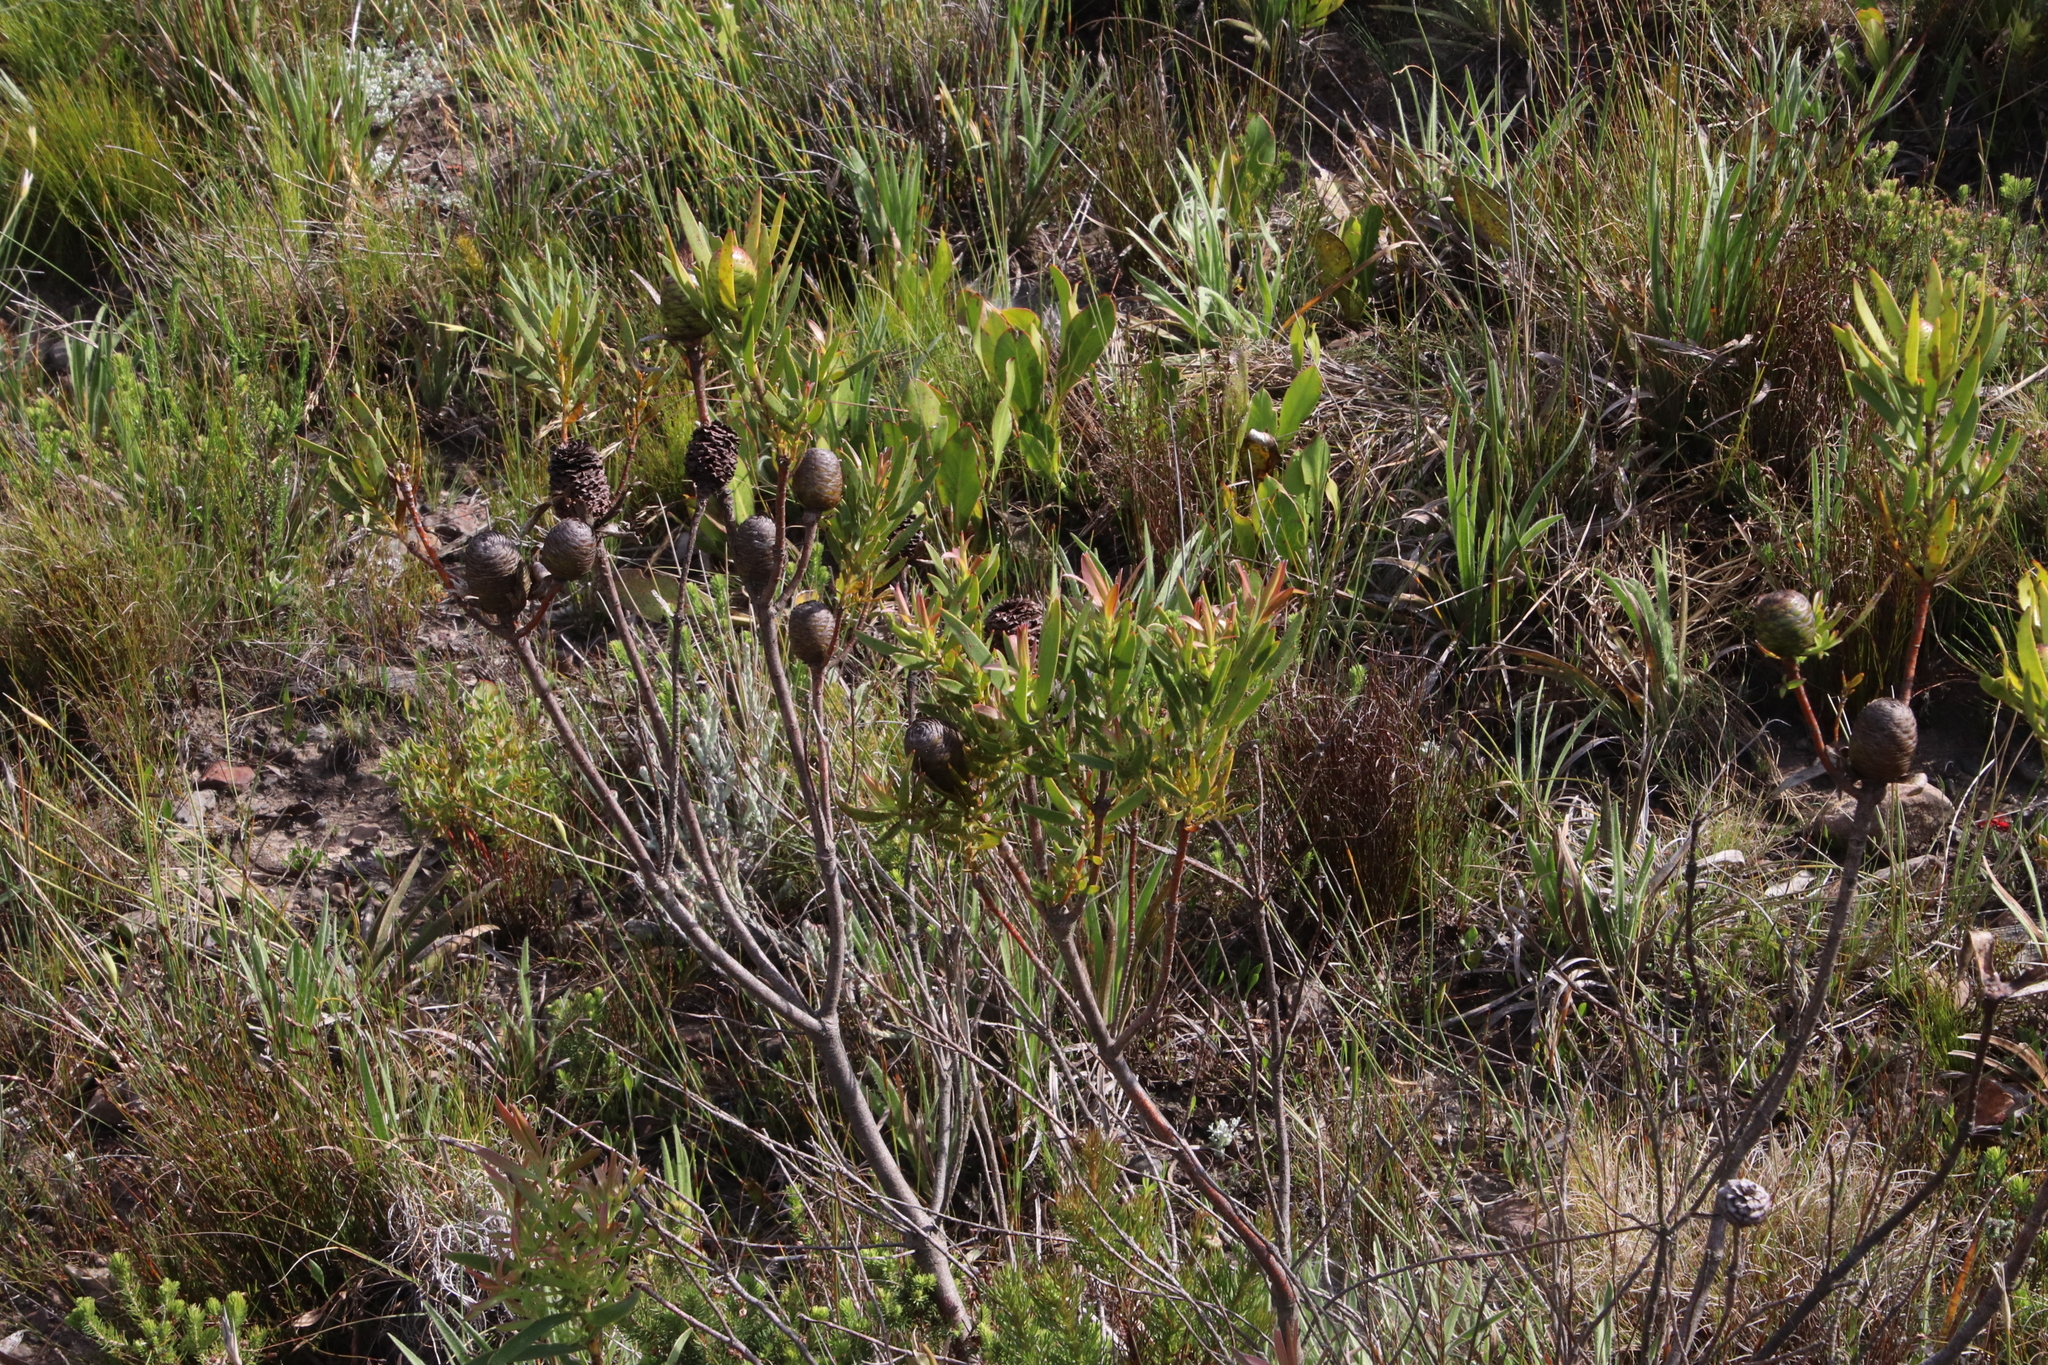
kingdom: Plantae
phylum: Tracheophyta
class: Magnoliopsida
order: Proteales
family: Proteaceae
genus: Leucadendron
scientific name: Leucadendron spissifolium
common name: Spear-leaf conebush
